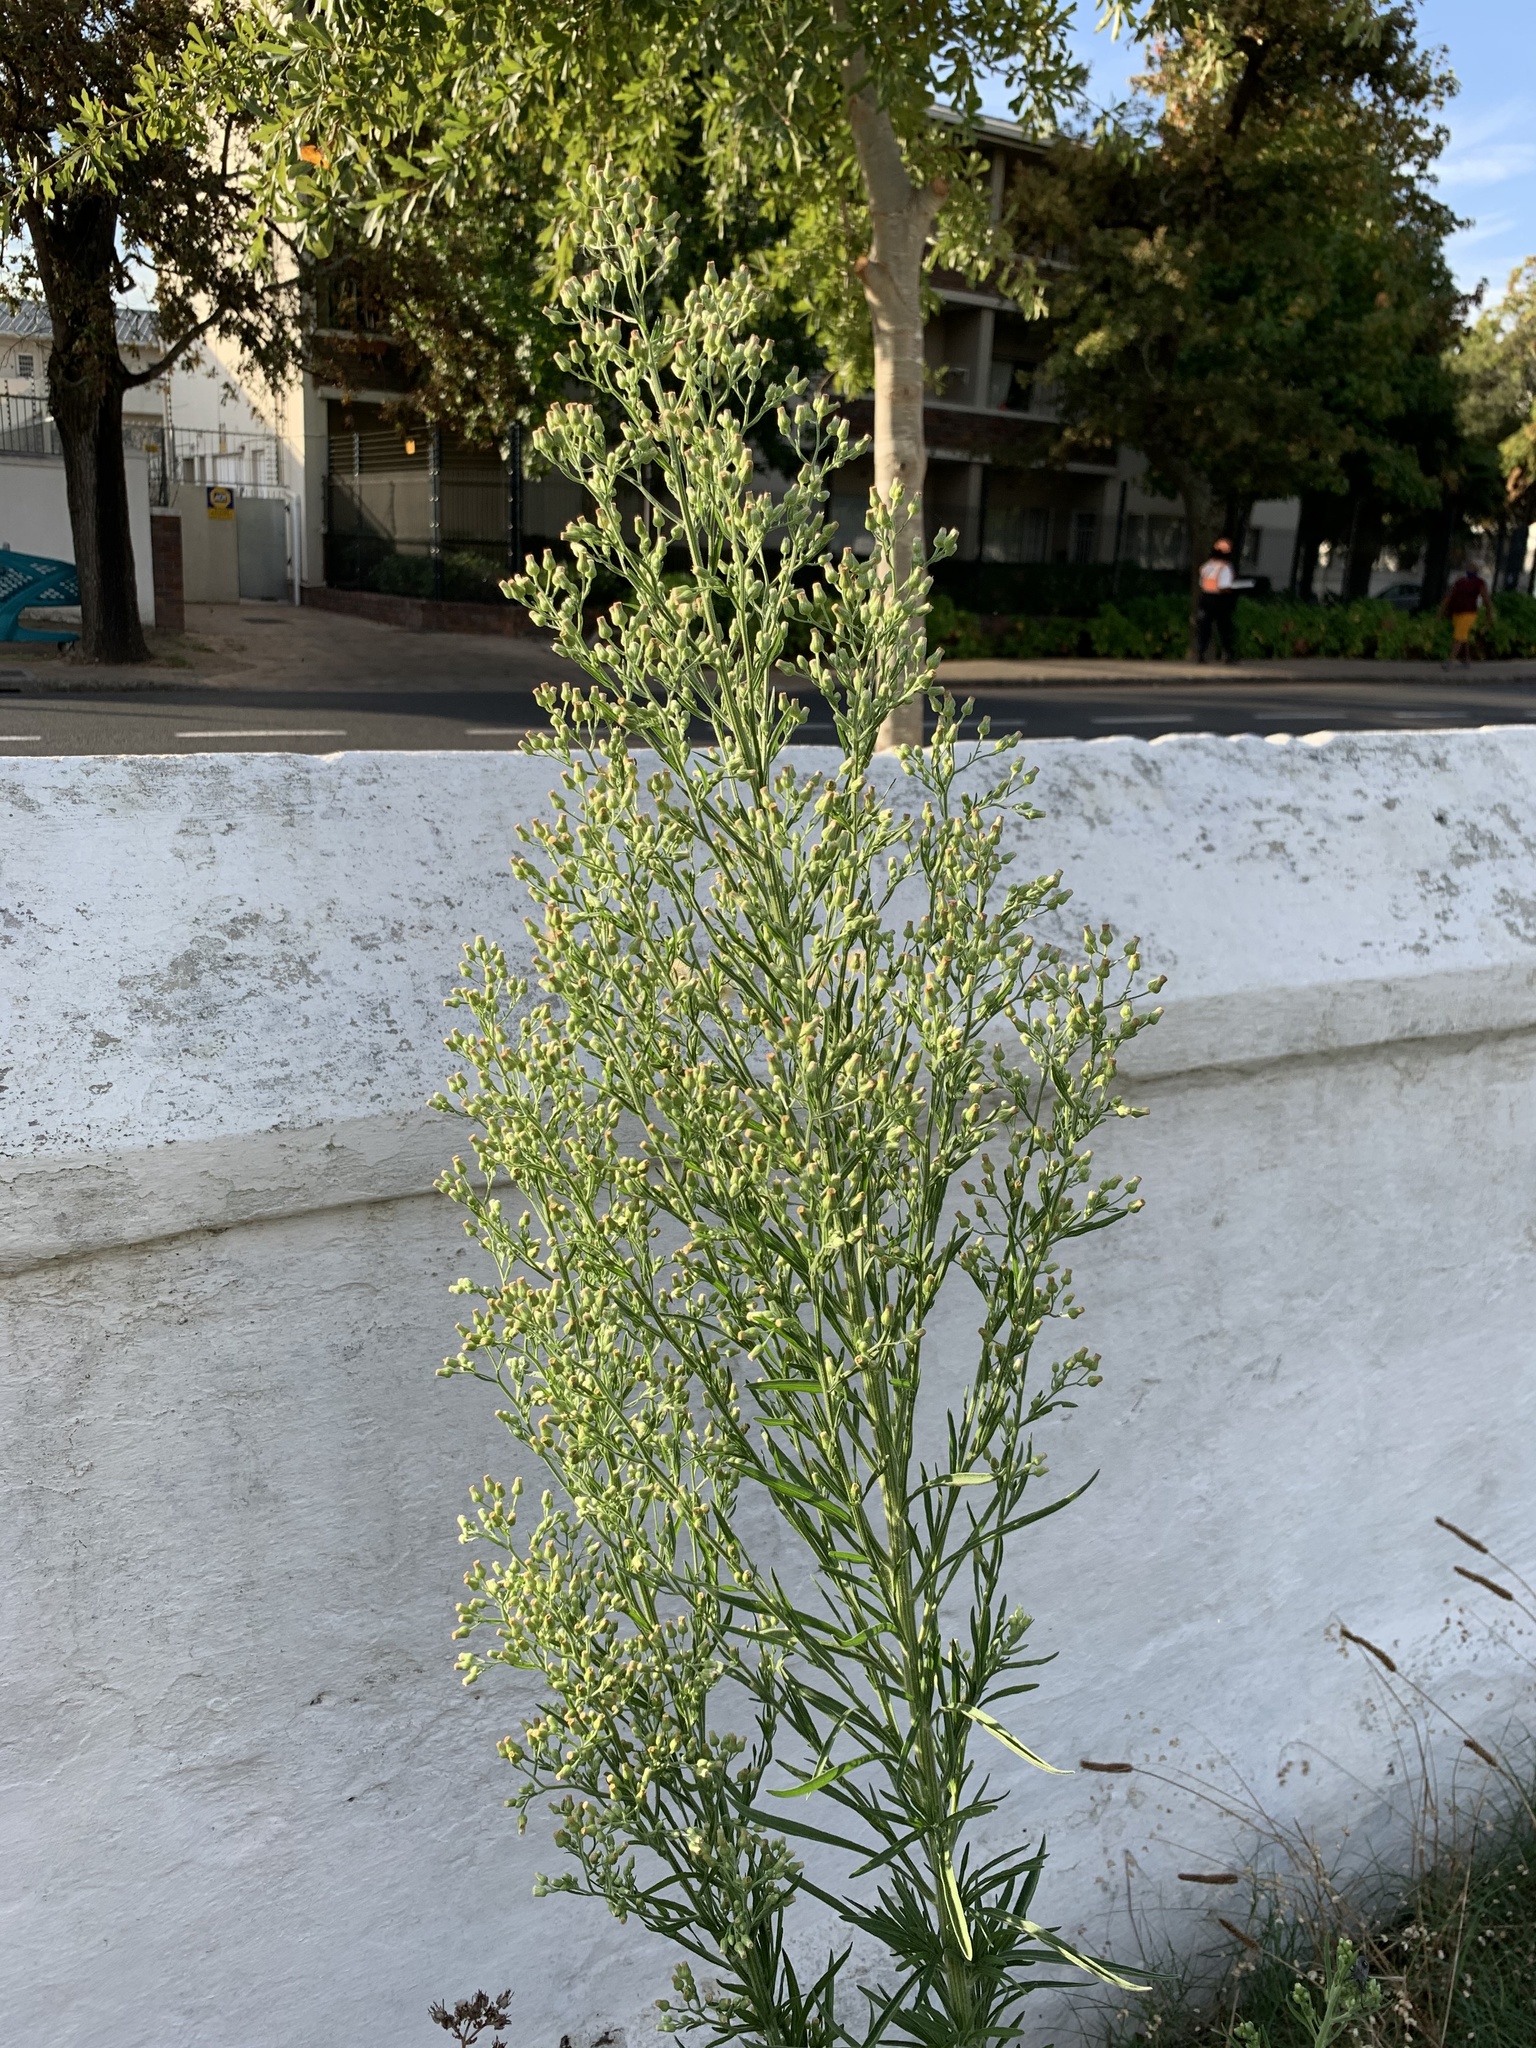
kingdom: Plantae
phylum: Tracheophyta
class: Magnoliopsida
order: Asterales
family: Asteraceae
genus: Erigeron
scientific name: Erigeron sumatrensis
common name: Daisy
